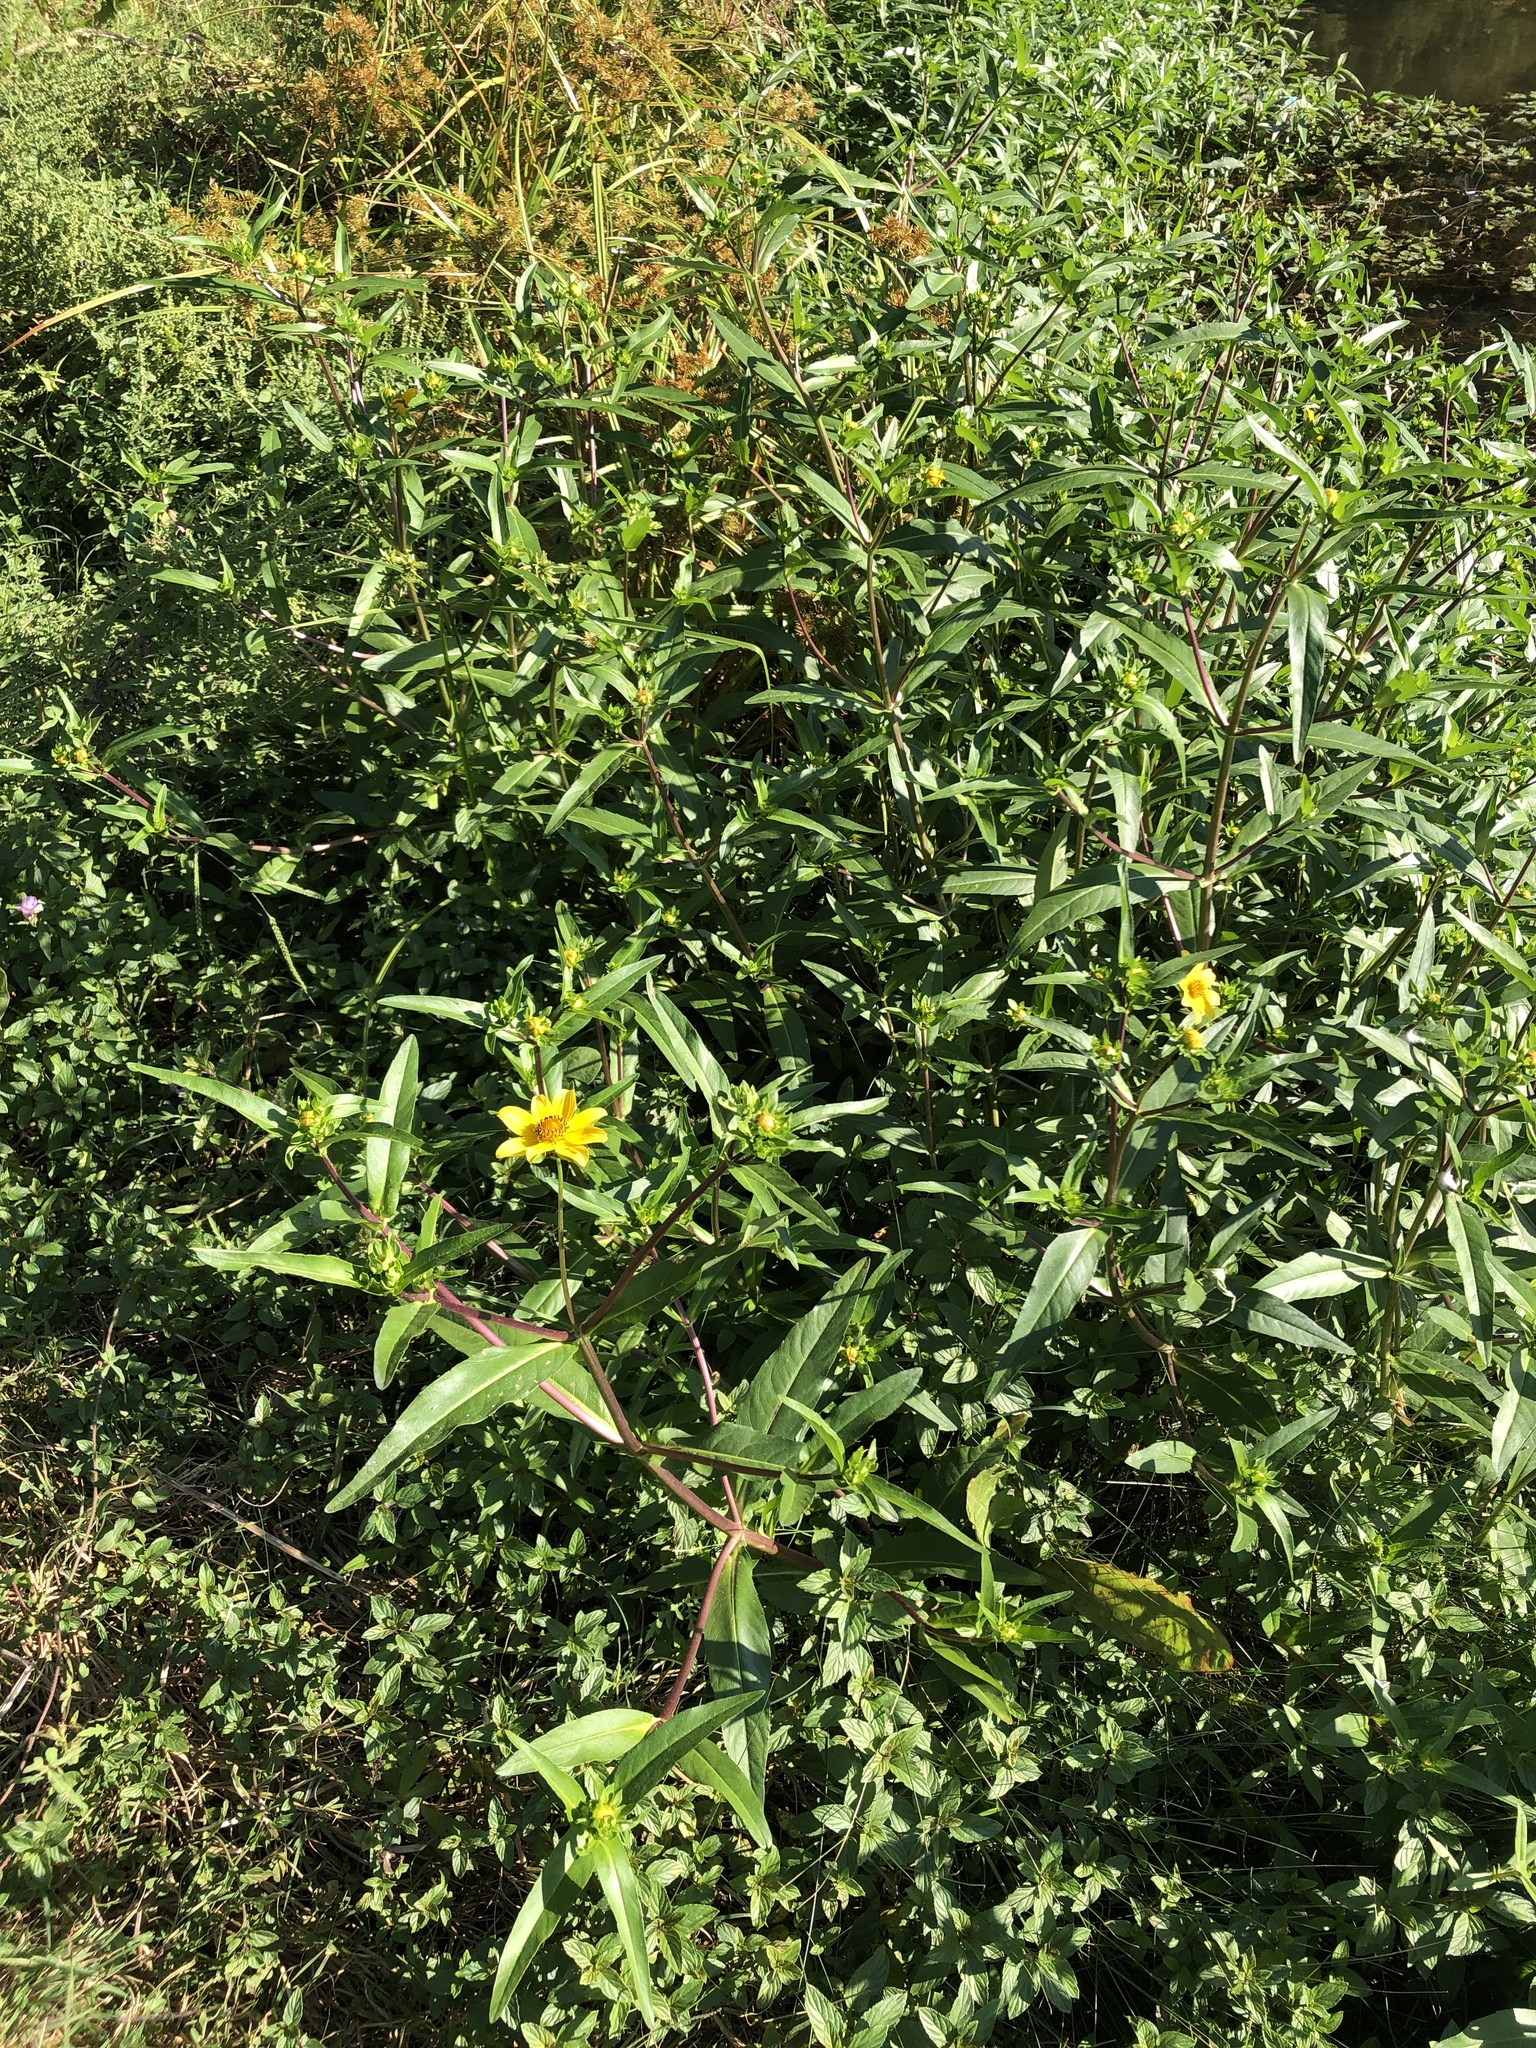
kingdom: Plantae
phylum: Tracheophyta
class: Magnoliopsida
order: Asterales
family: Asteraceae
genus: Bidens
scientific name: Bidens laevis
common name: Larger bur-marigold
